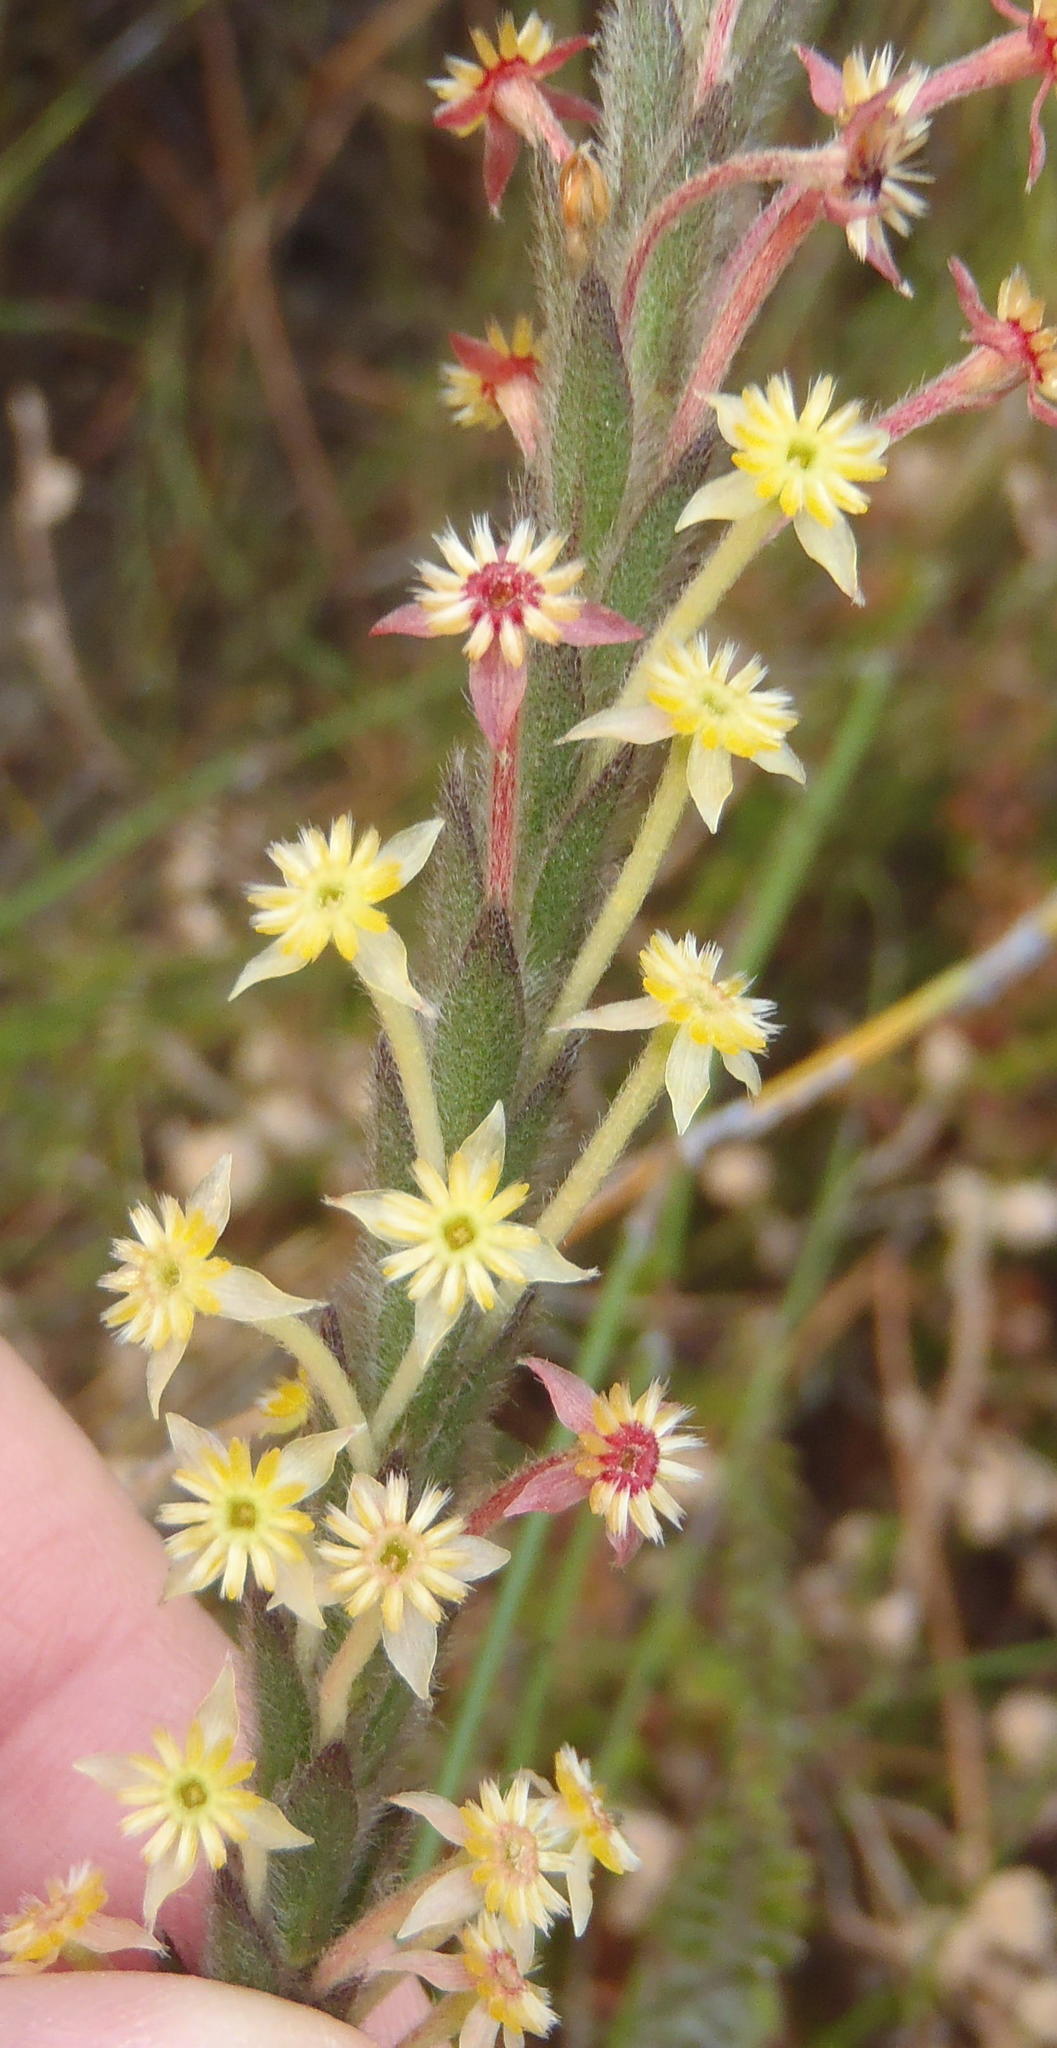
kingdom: Plantae
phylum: Tracheophyta
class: Magnoliopsida
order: Malvales
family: Thymelaeaceae
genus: Struthiola
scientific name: Struthiola tomentosa
